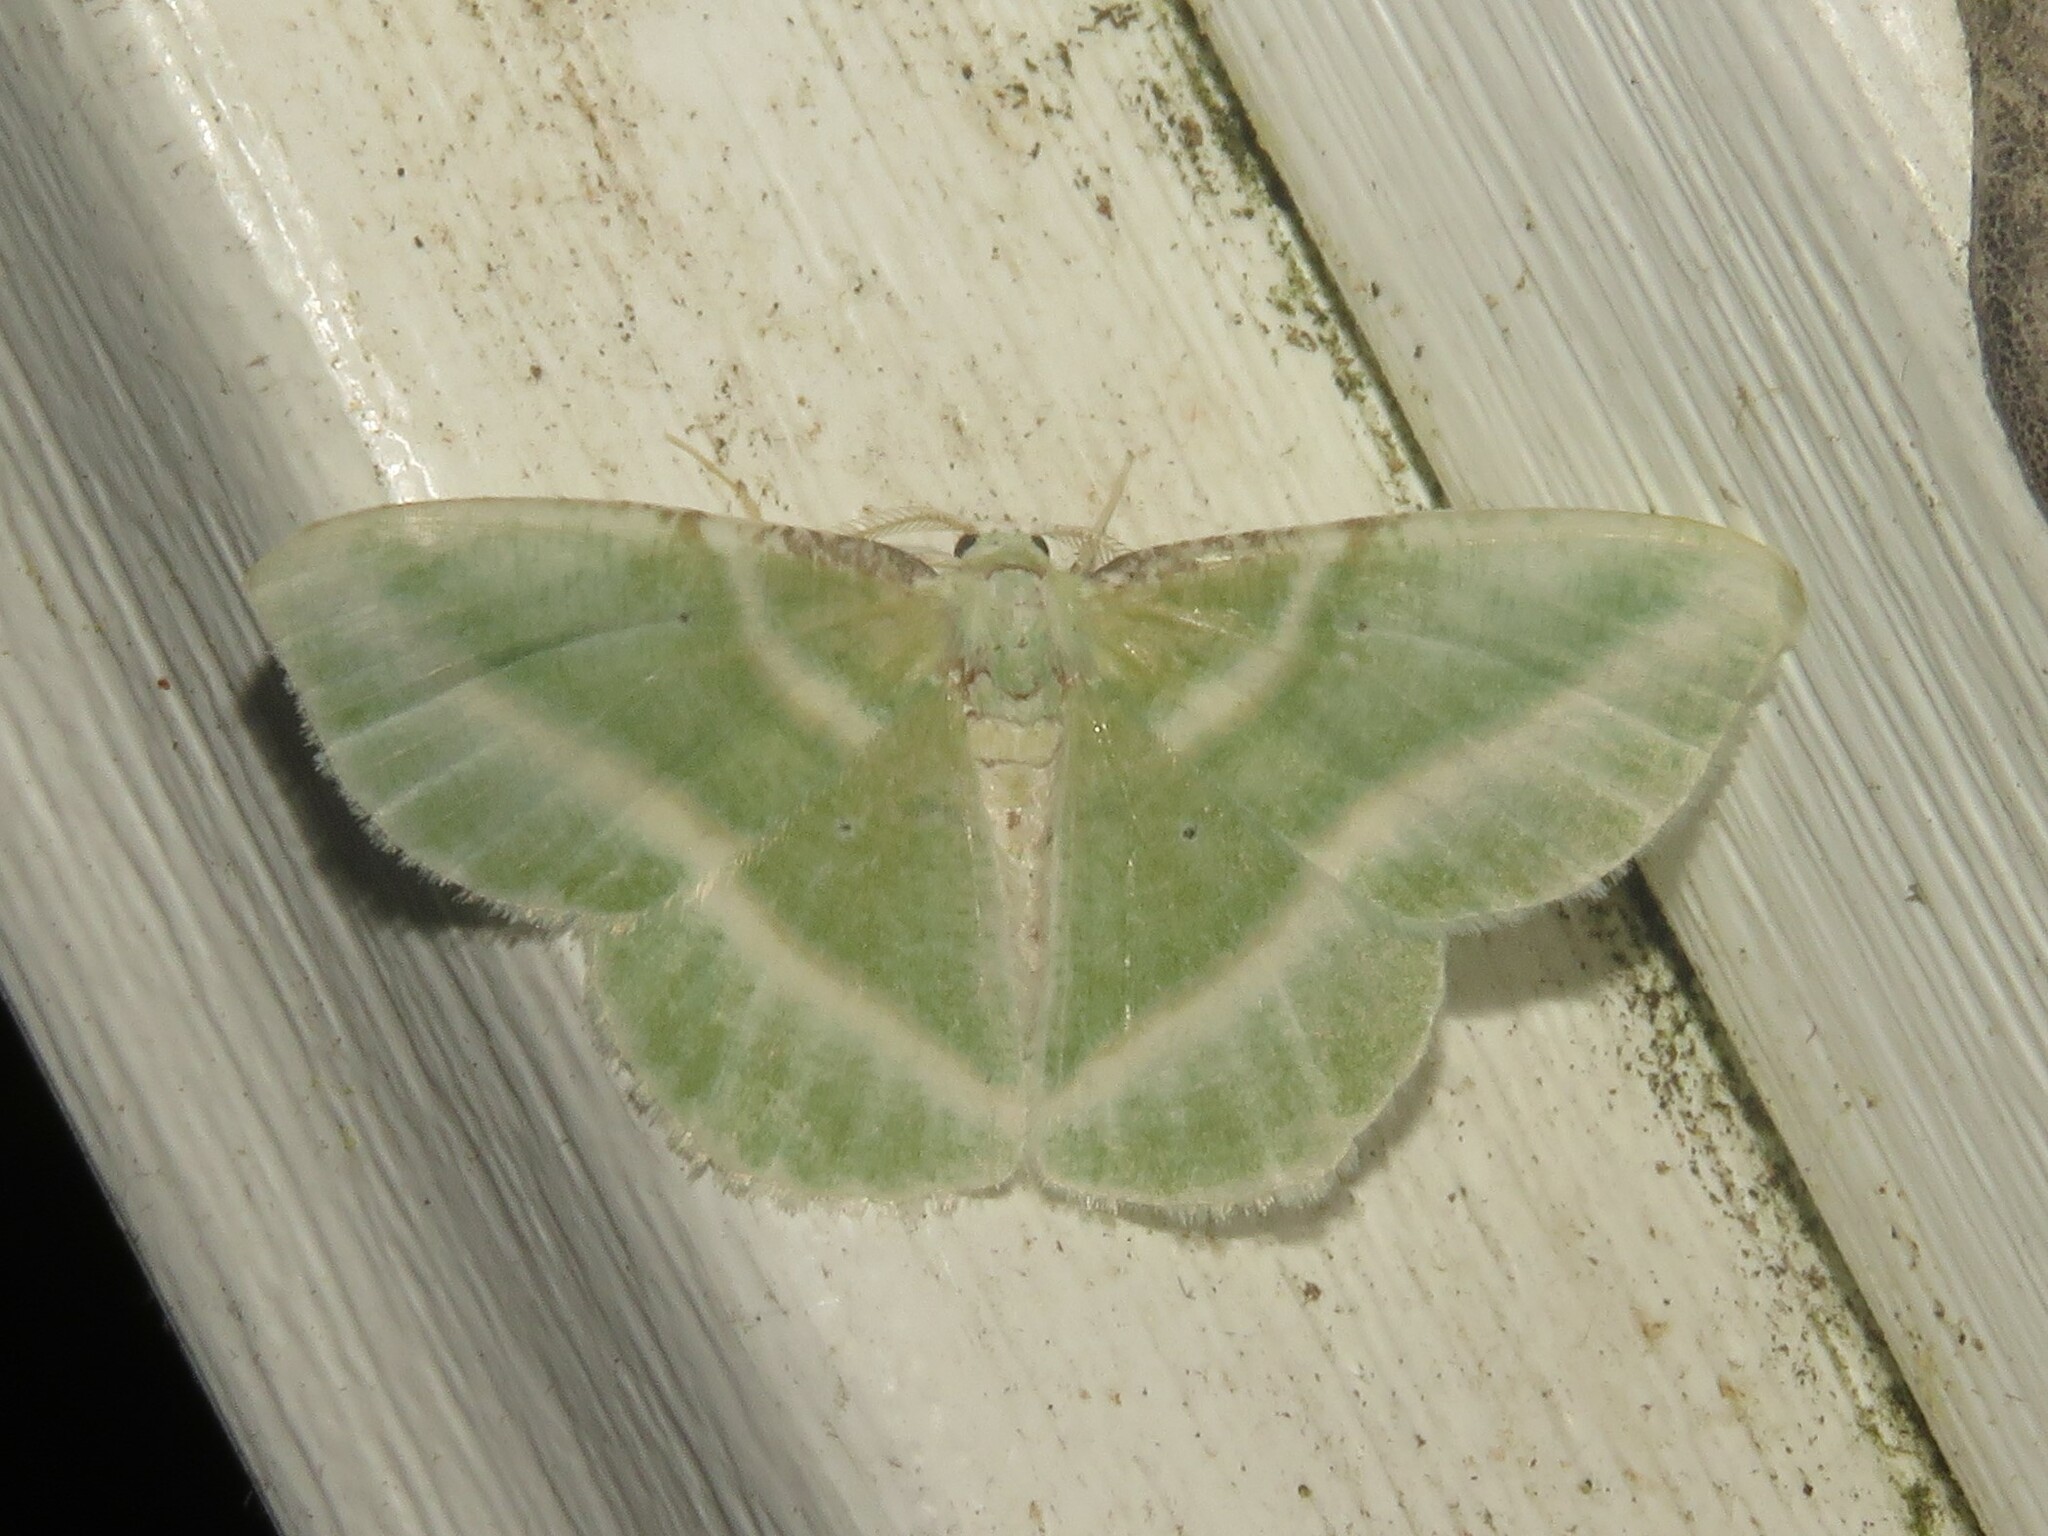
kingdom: Animalia
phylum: Arthropoda
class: Insecta
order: Lepidoptera
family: Geometridae
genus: Dichorda
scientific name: Dichorda iridaria
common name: Showy emerald
